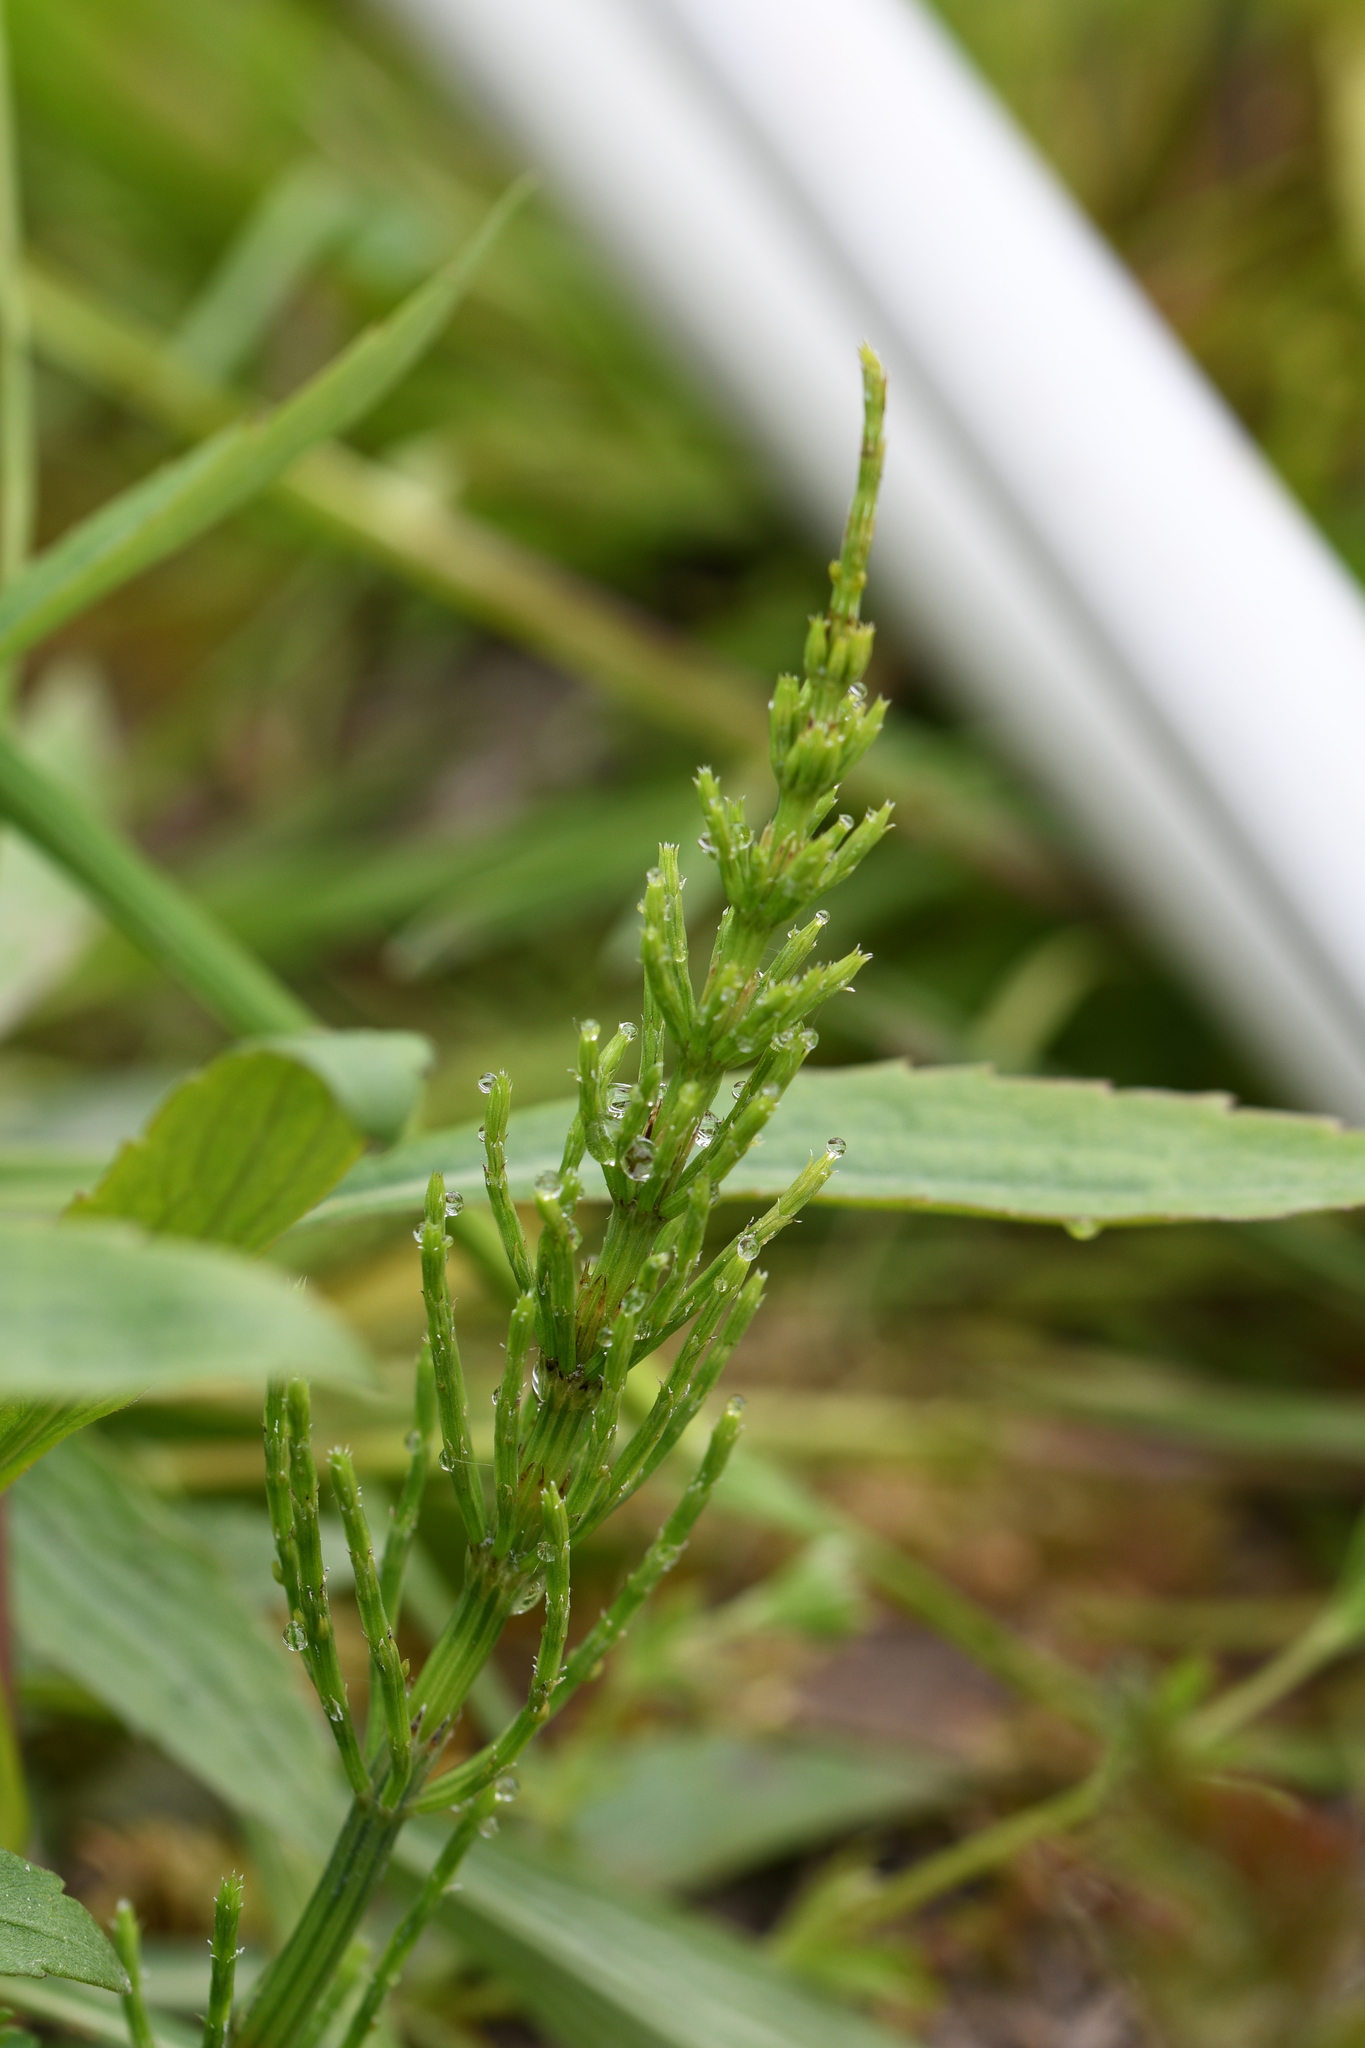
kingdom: Plantae
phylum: Tracheophyta
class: Polypodiopsida
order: Equisetales
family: Equisetaceae
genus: Equisetum
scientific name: Equisetum arvense
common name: Field horsetail
